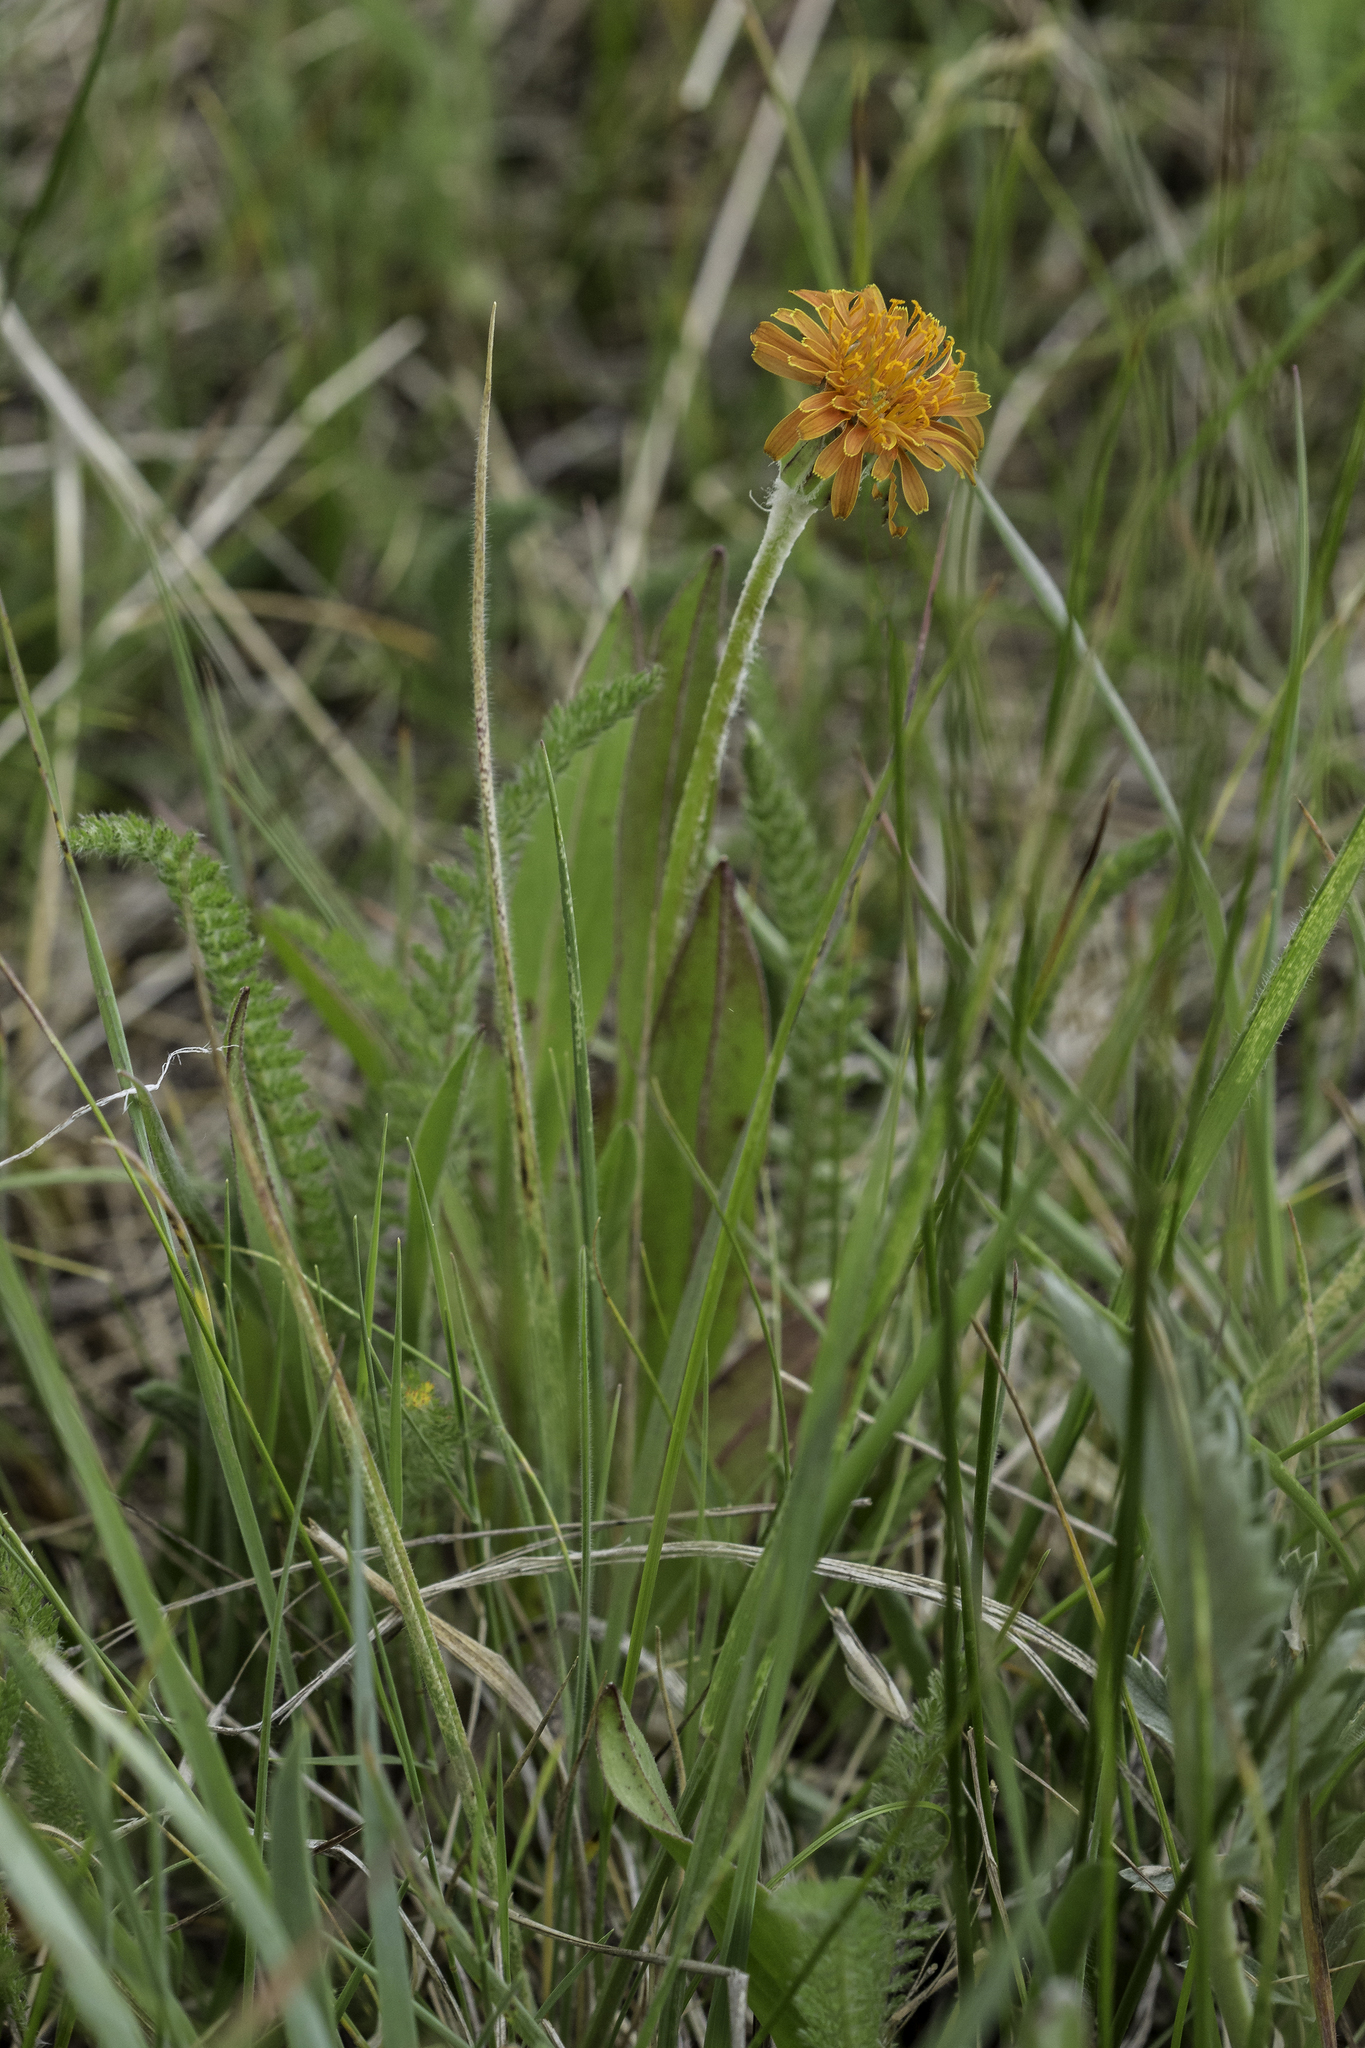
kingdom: Plantae
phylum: Tracheophyta
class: Magnoliopsida
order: Asterales
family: Asteraceae
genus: Agoseris
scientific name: Agoseris aurantiaca
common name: Mountain agoseris
